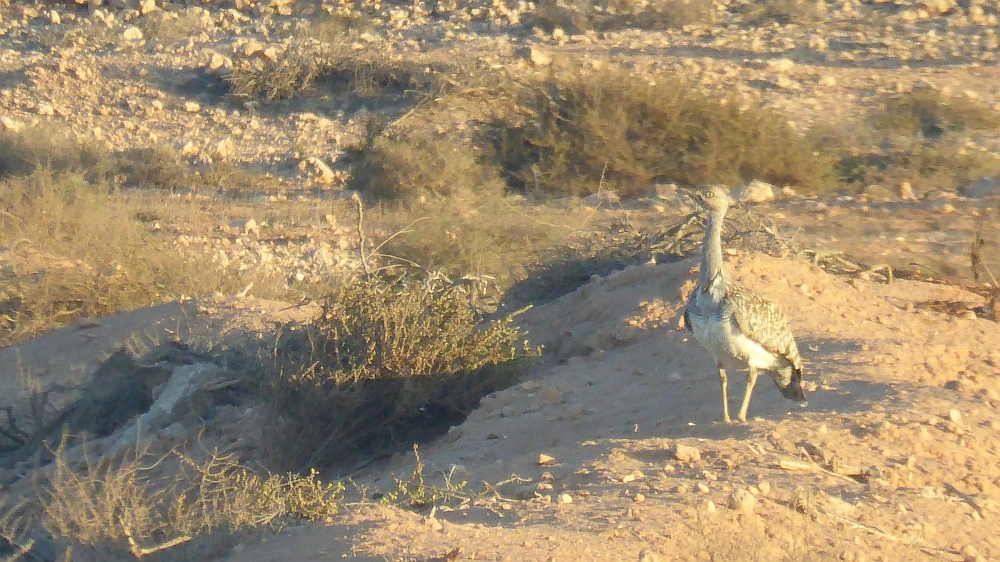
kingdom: Animalia
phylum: Chordata
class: Aves
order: Otidiformes
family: Otididae
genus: Chlamydotis
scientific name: Chlamydotis undulata
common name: Houbara bustard
